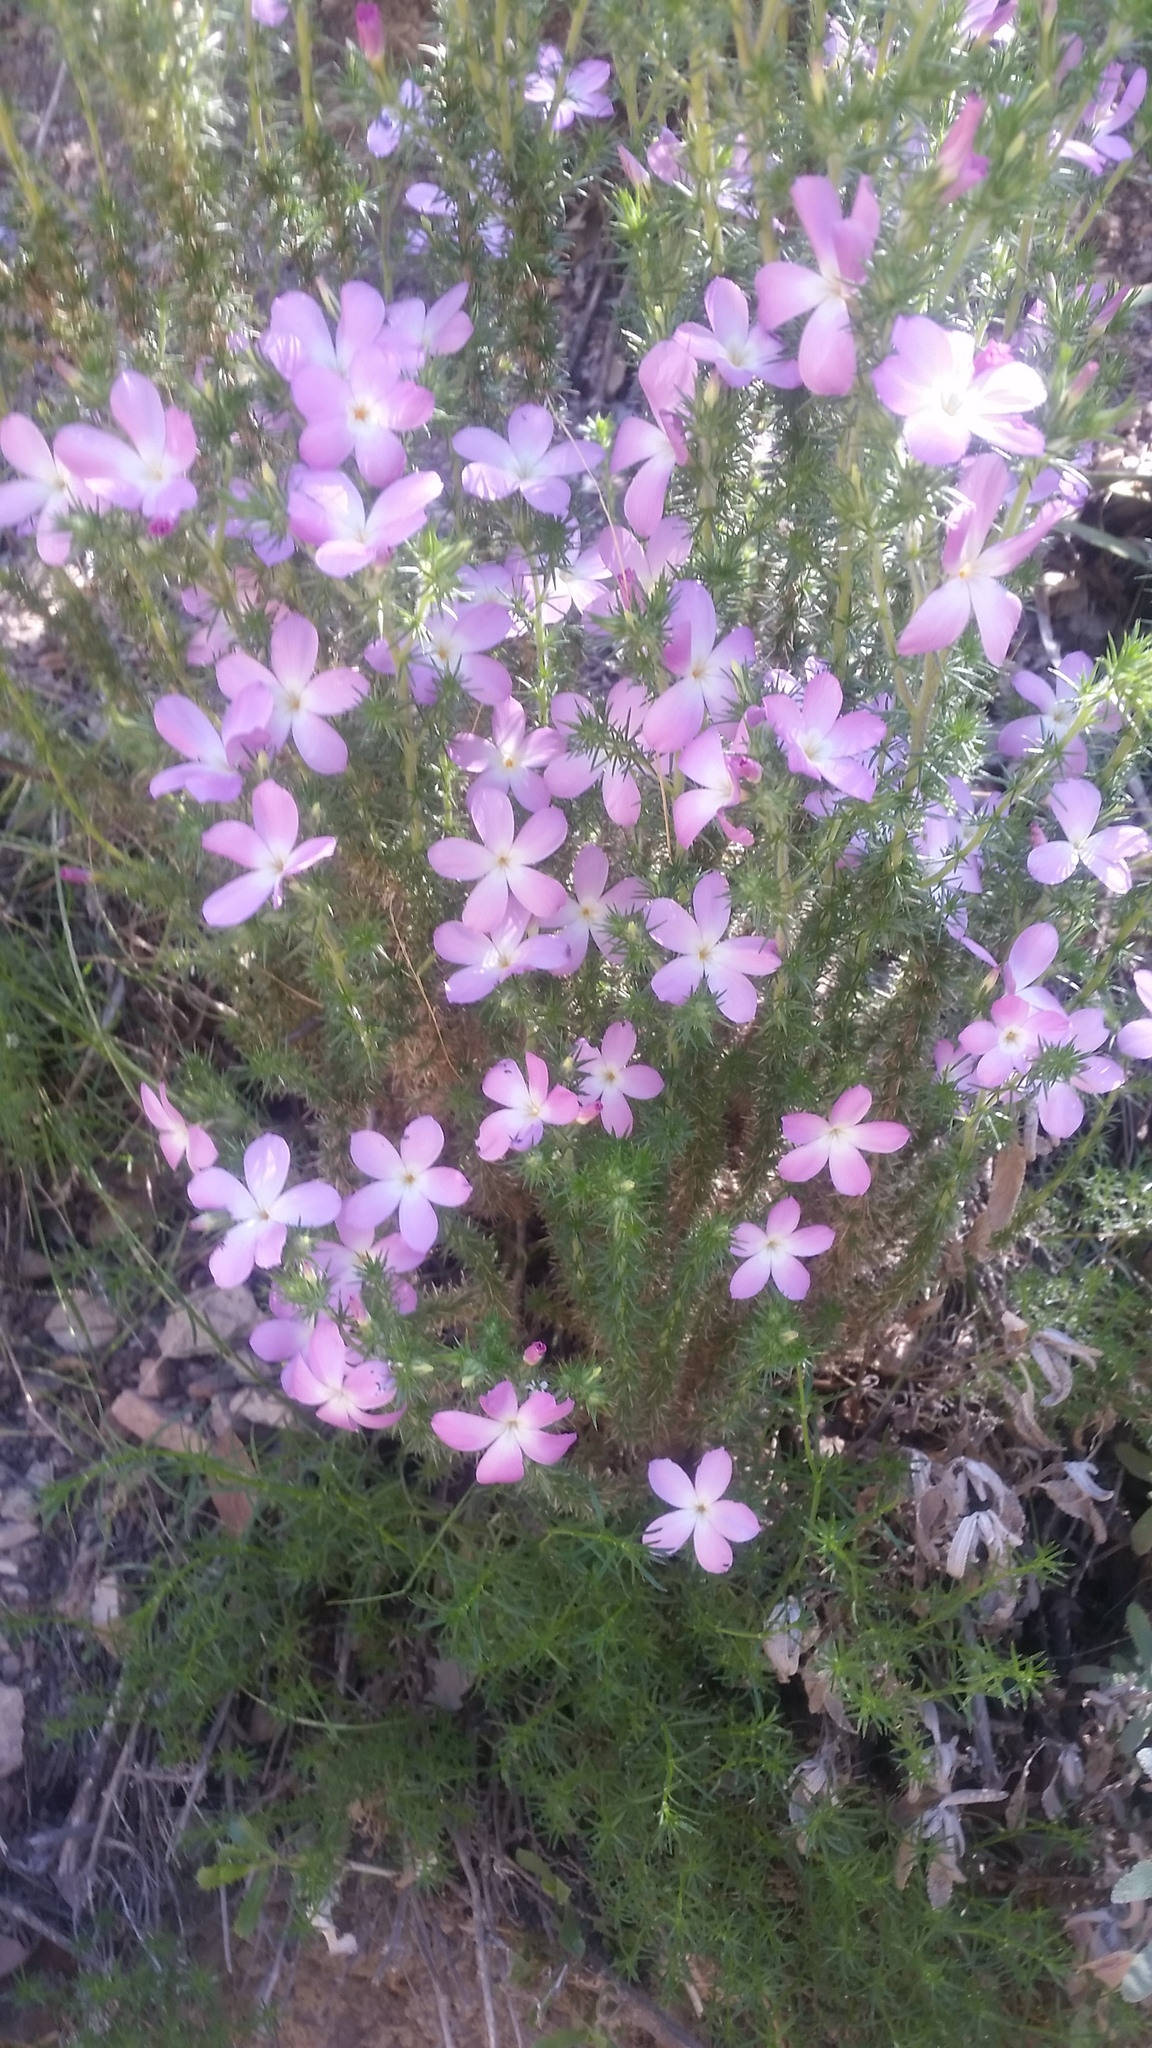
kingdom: Plantae
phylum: Tracheophyta
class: Magnoliopsida
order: Ericales
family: Polemoniaceae
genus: Linanthus
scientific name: Linanthus californicus
